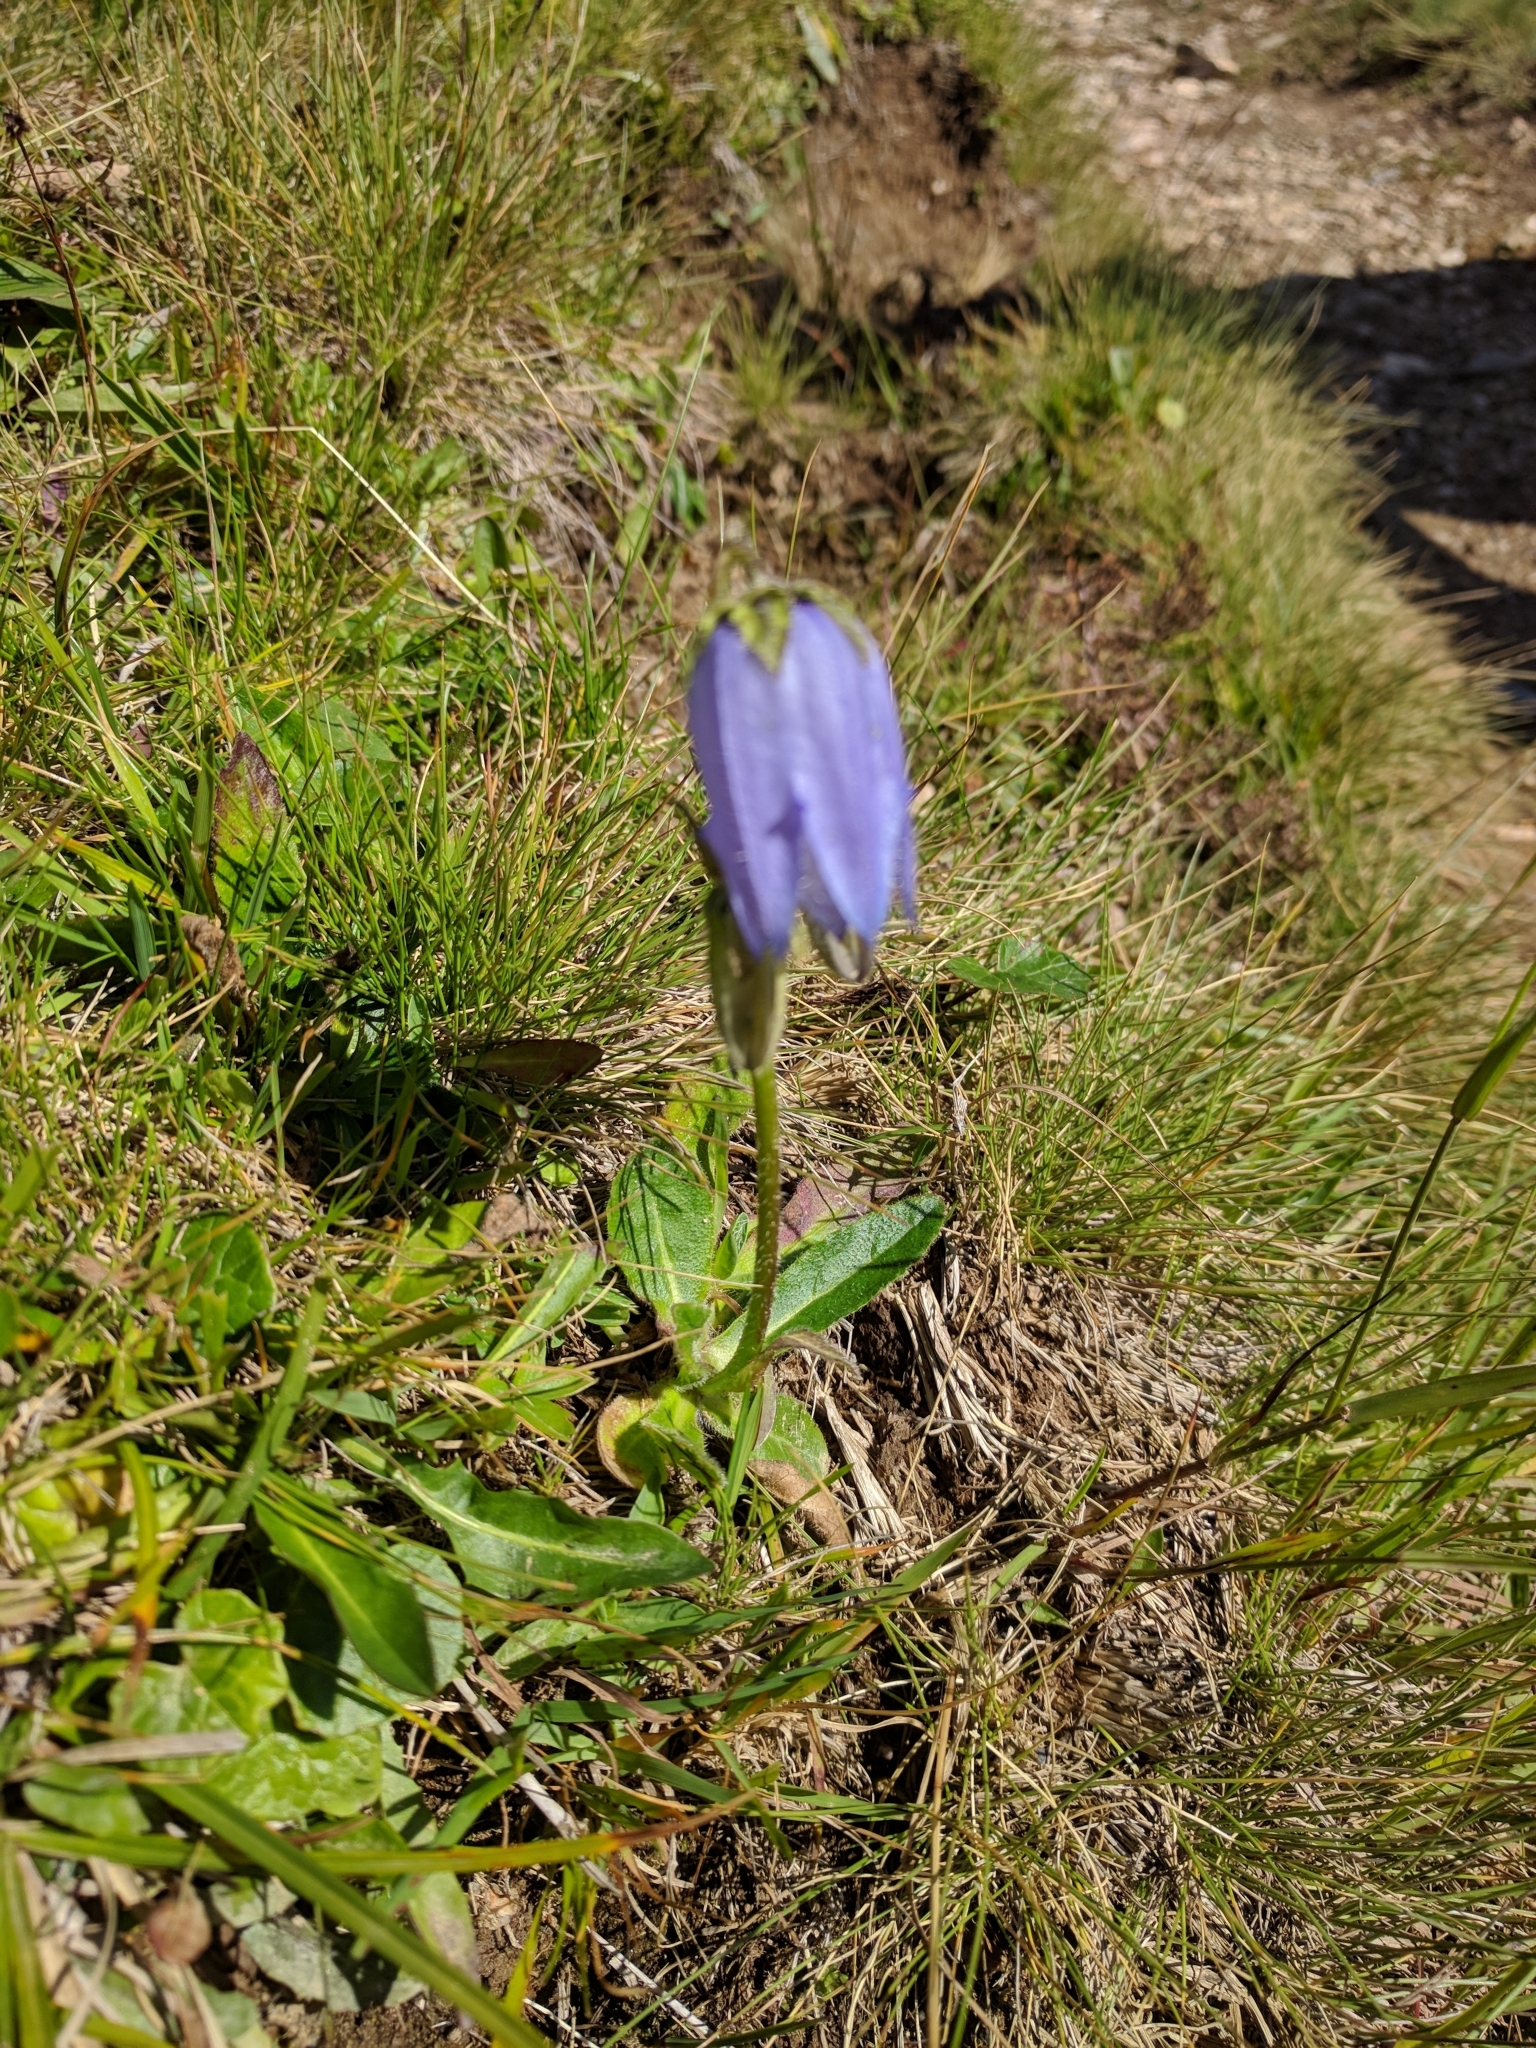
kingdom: Plantae
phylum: Tracheophyta
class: Magnoliopsida
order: Asterales
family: Campanulaceae
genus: Campanula
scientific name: Campanula barbata
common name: Bearded bellflower
